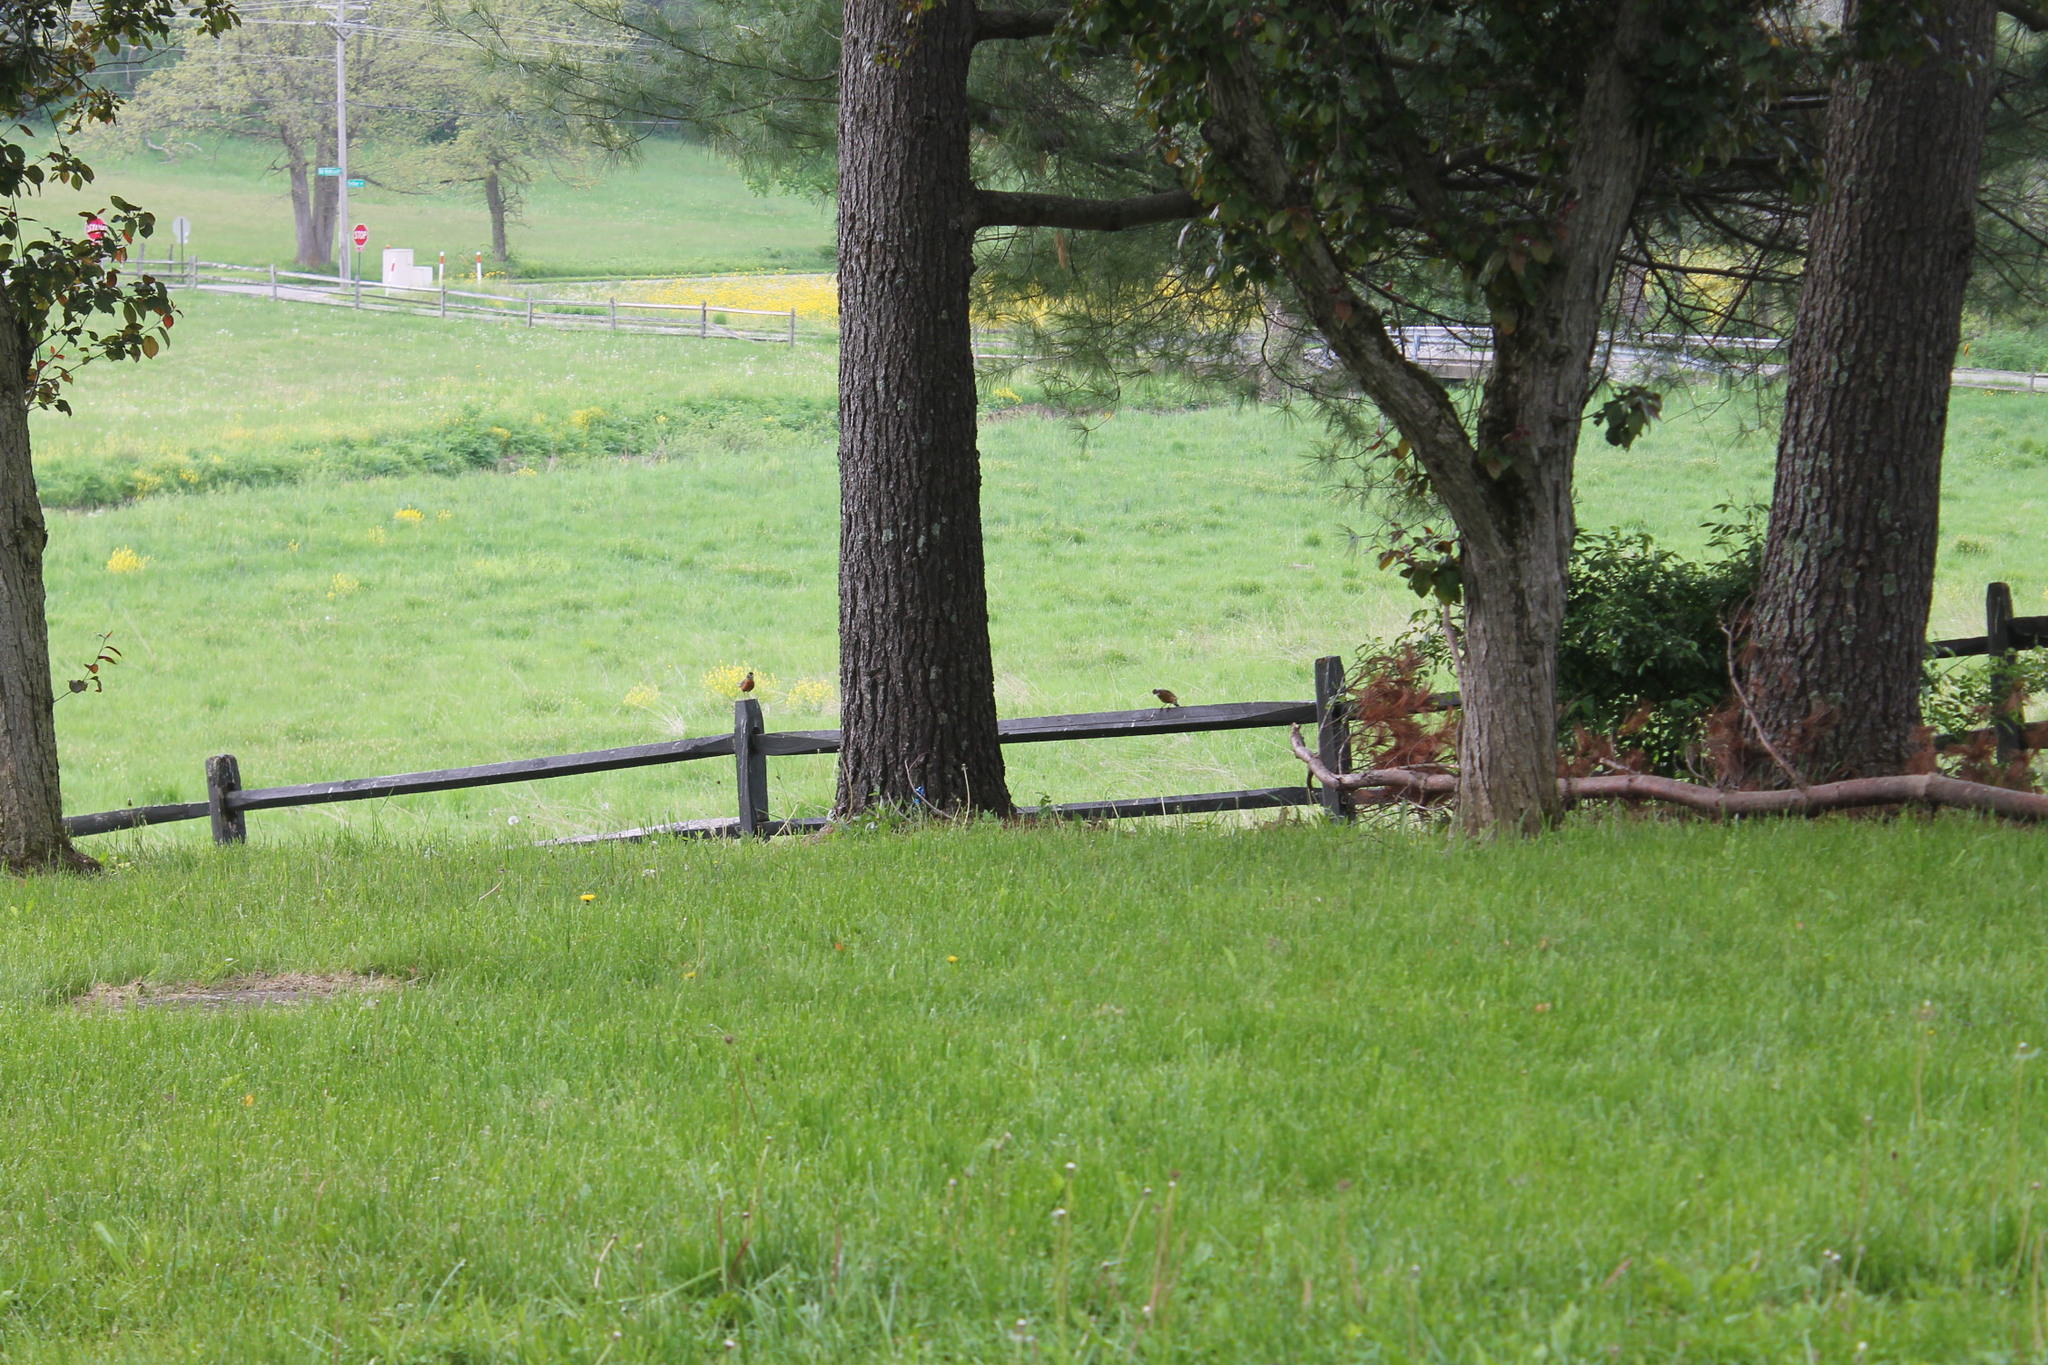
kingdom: Animalia
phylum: Chordata
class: Aves
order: Passeriformes
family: Turdidae
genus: Turdus
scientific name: Turdus migratorius
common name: American robin
